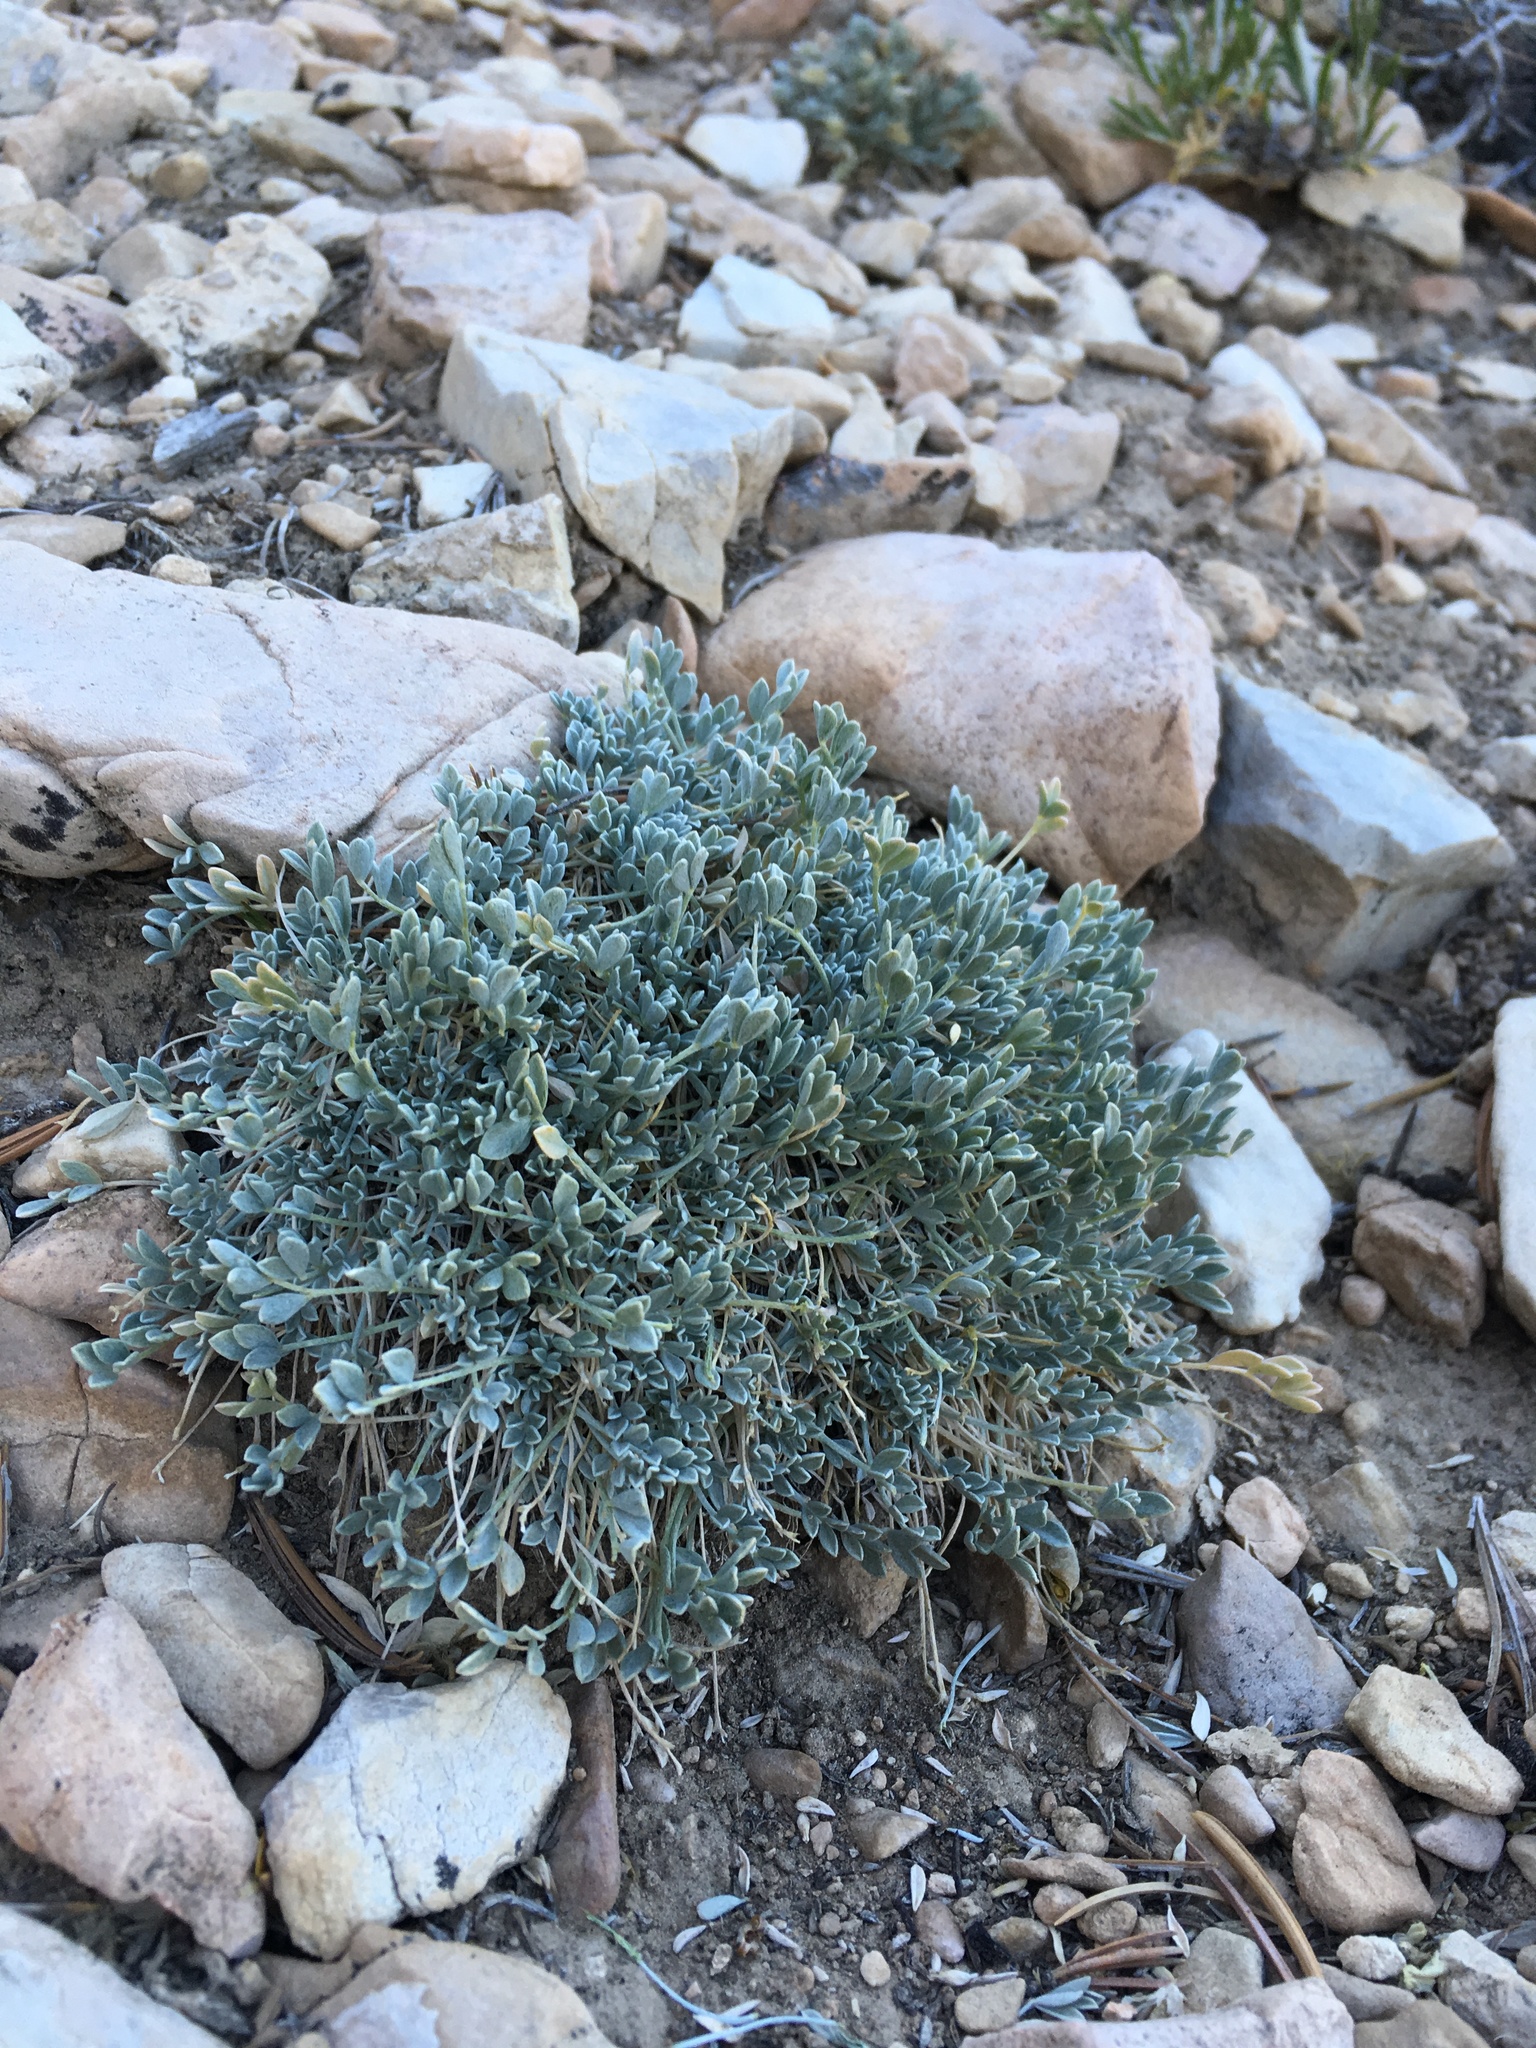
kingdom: Plantae
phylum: Tracheophyta
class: Magnoliopsida
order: Fabales
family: Fabaceae
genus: Astragalus
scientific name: Astragalus calycosus
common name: King's milkvetch
